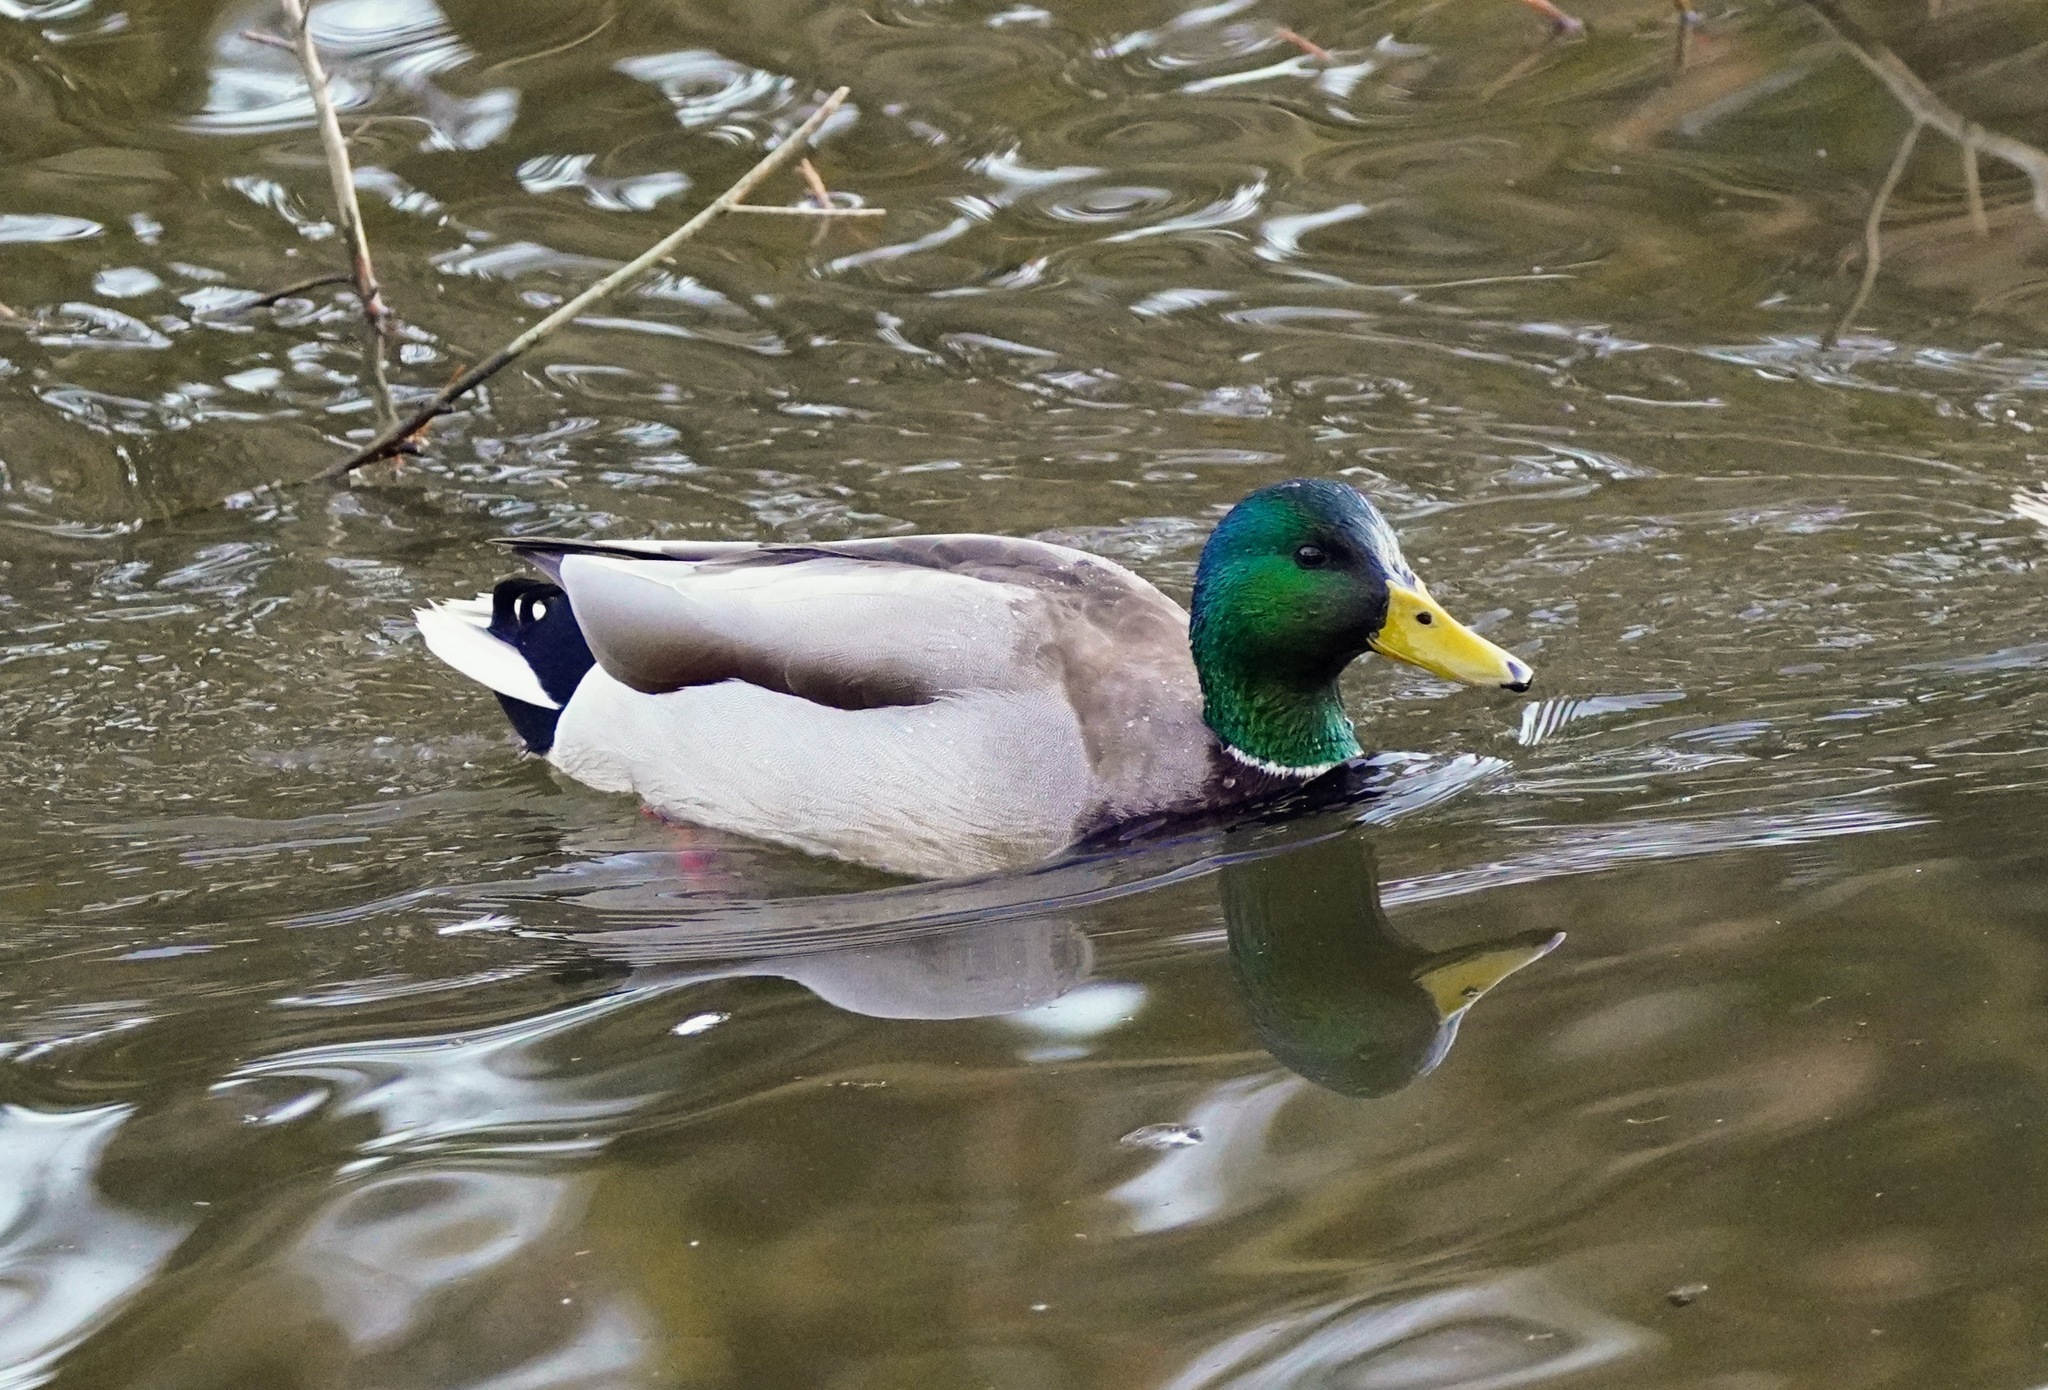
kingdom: Animalia
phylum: Chordata
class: Aves
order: Anseriformes
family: Anatidae
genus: Anas
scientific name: Anas platyrhynchos
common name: Mallard
